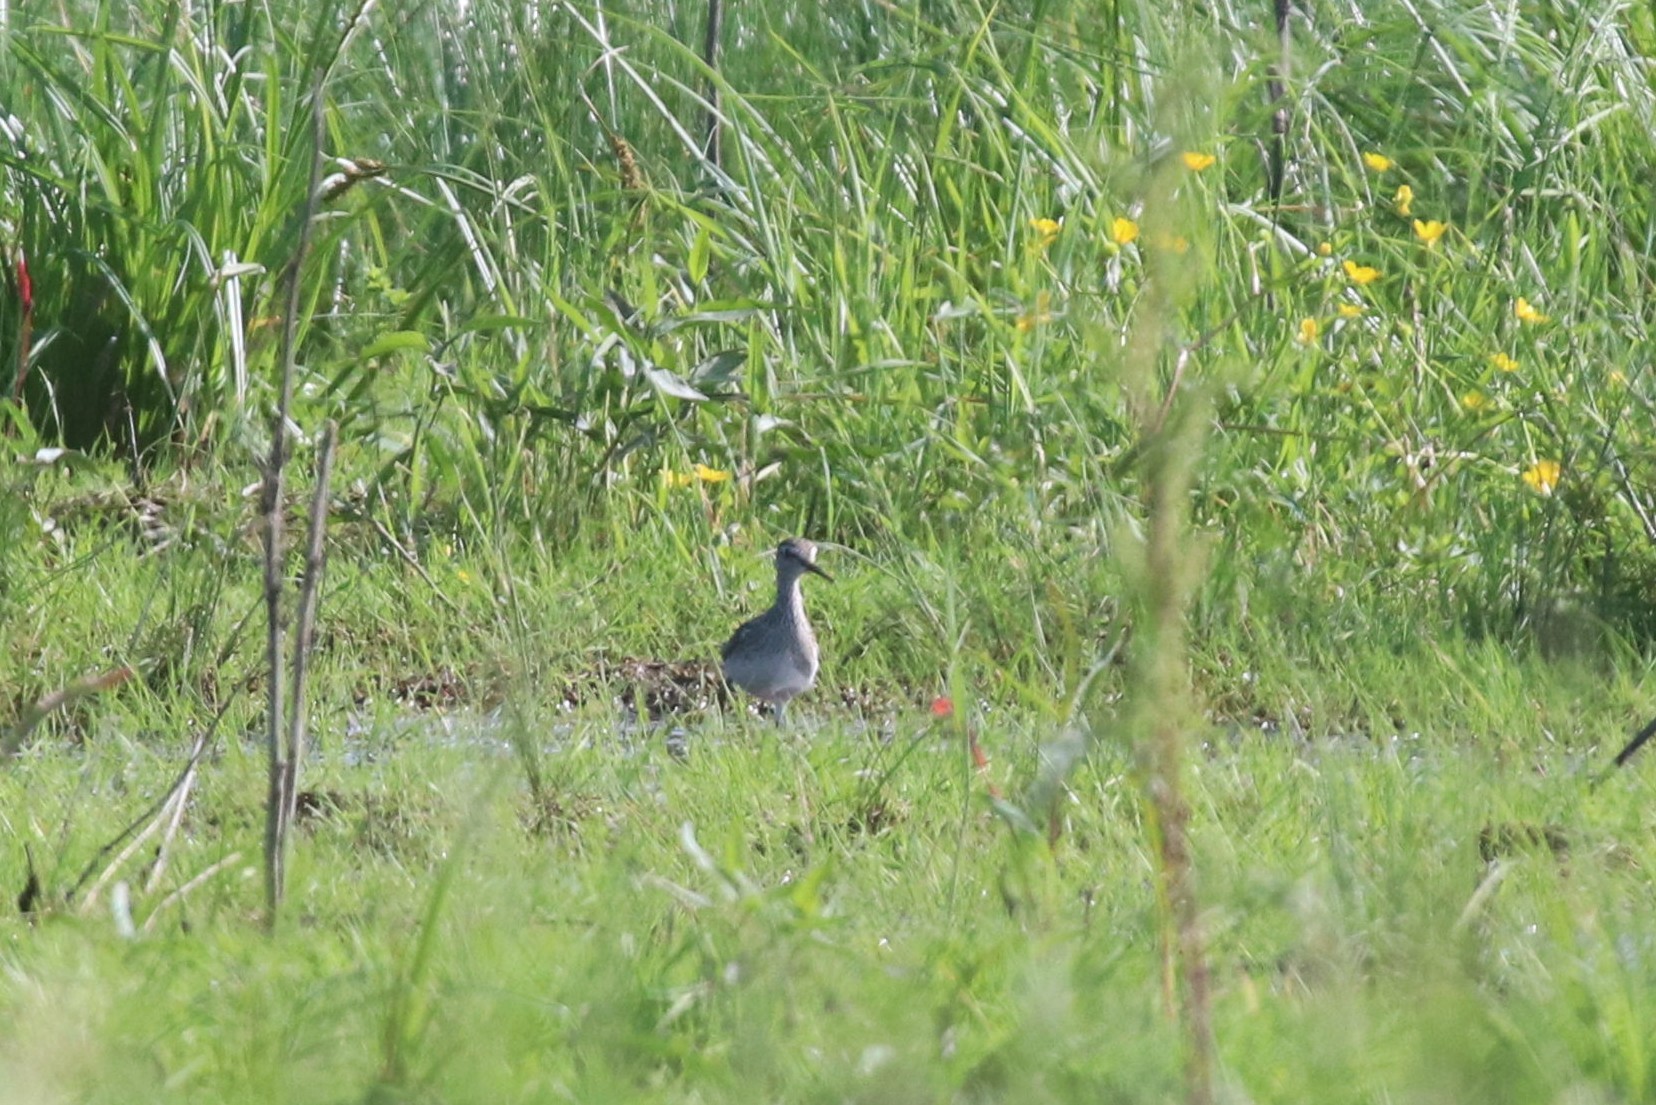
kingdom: Animalia
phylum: Chordata
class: Aves
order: Charadriiformes
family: Scolopacidae
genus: Tringa
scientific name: Tringa glareola
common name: Wood sandpiper
